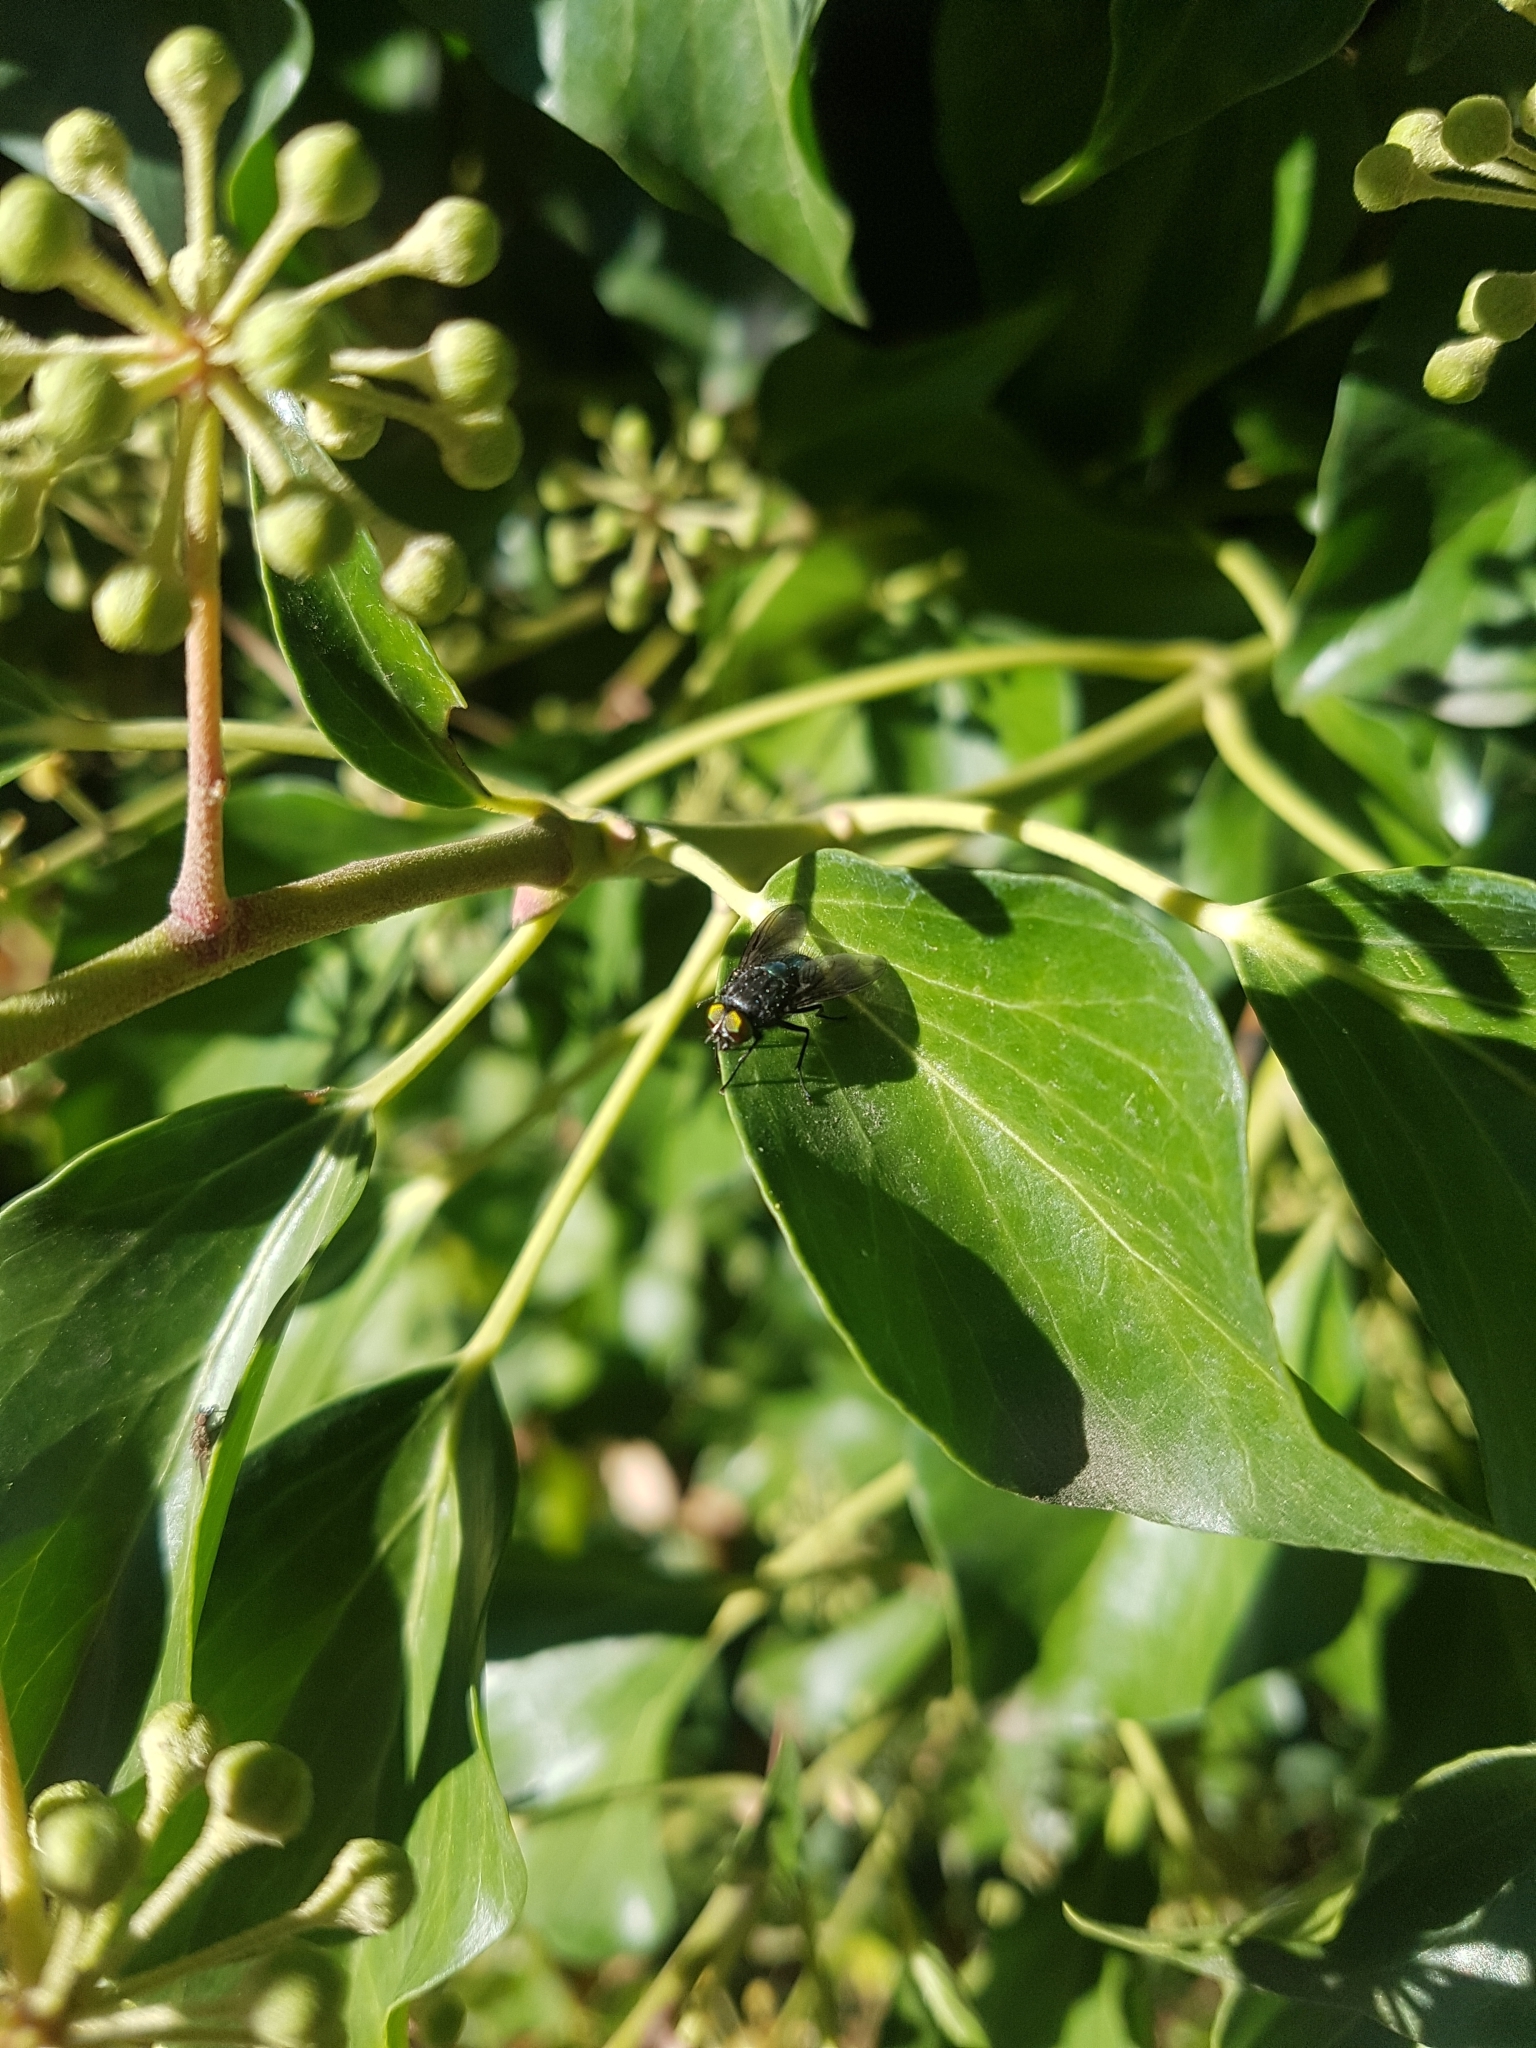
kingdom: Animalia
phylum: Arthropoda
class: Insecta
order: Diptera
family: Calliphoridae
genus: Calliphora
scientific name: Calliphora vicina
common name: Common blow flie
